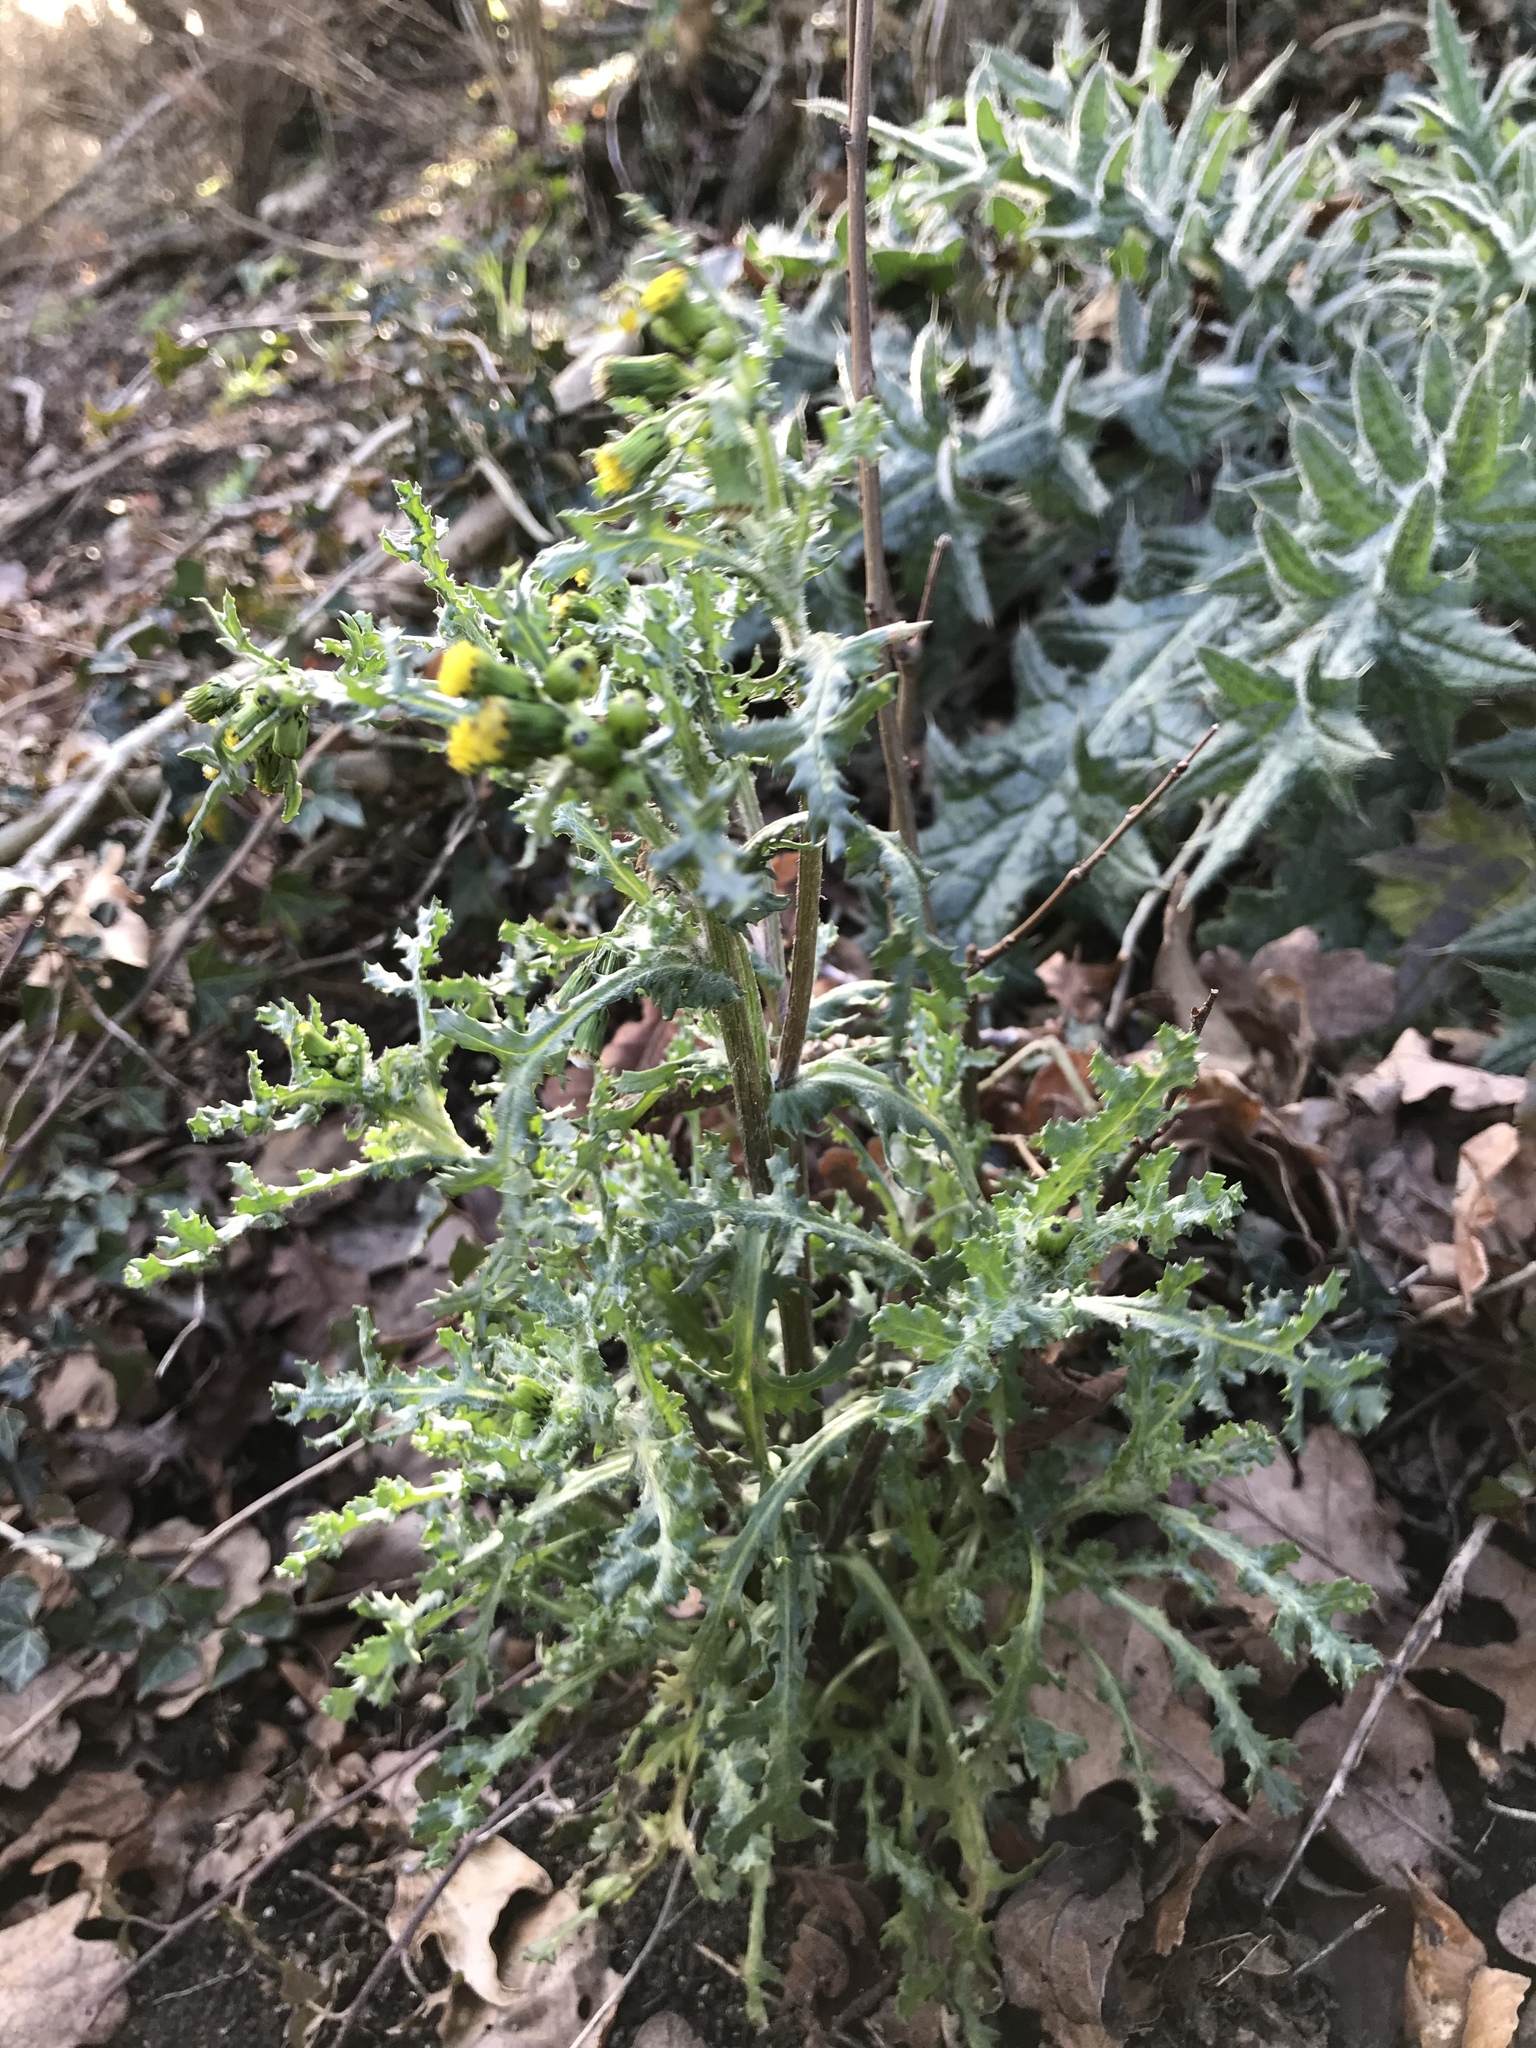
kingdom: Plantae
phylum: Tracheophyta
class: Magnoliopsida
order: Asterales
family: Asteraceae
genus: Senecio
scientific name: Senecio vulgaris
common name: Old-man-in-the-spring
